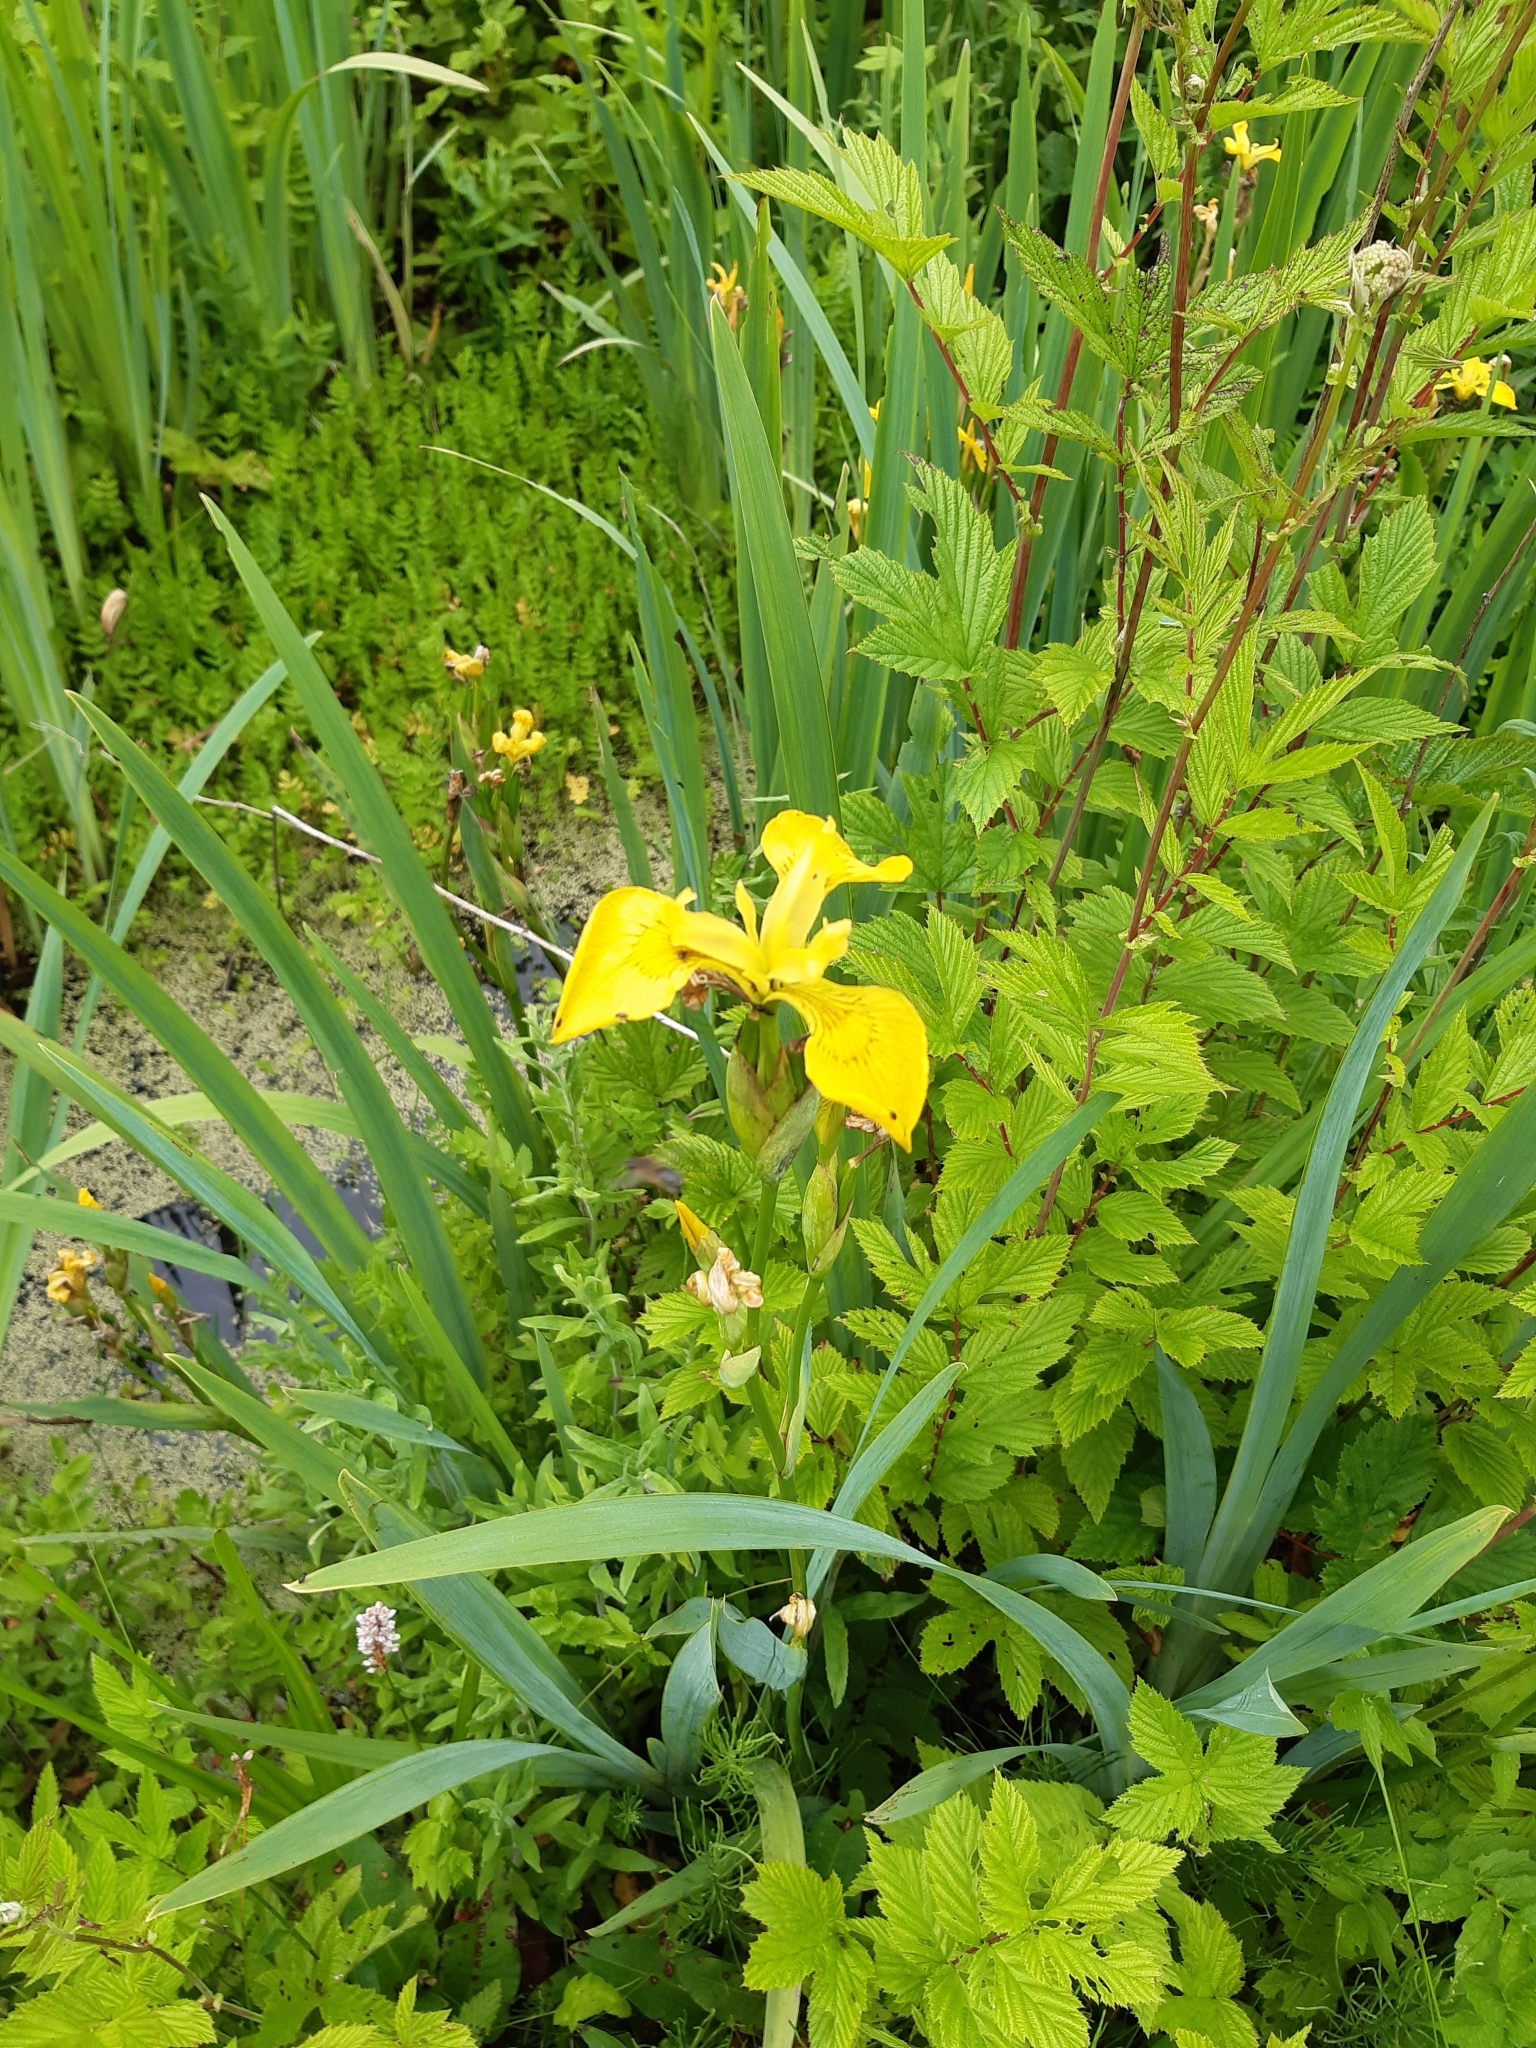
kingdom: Plantae
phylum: Tracheophyta
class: Liliopsida
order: Asparagales
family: Iridaceae
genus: Iris
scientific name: Iris pseudacorus
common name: Yellow flag
